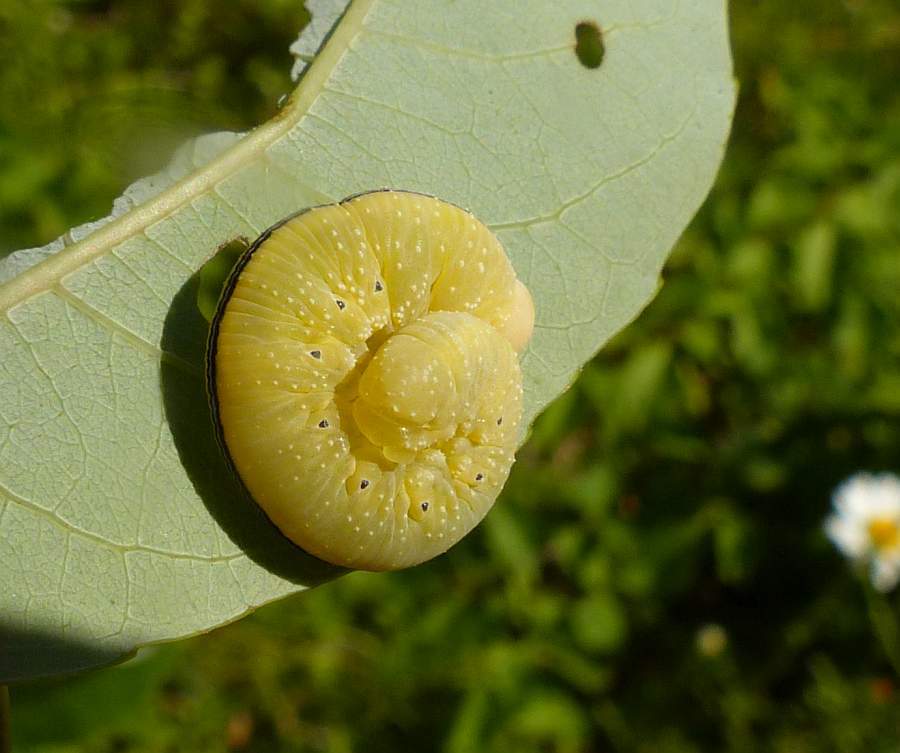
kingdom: Animalia
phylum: Arthropoda
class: Insecta
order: Hymenoptera
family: Cimbicidae
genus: Cimbex
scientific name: Cimbex americana
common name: Elm sawfly
